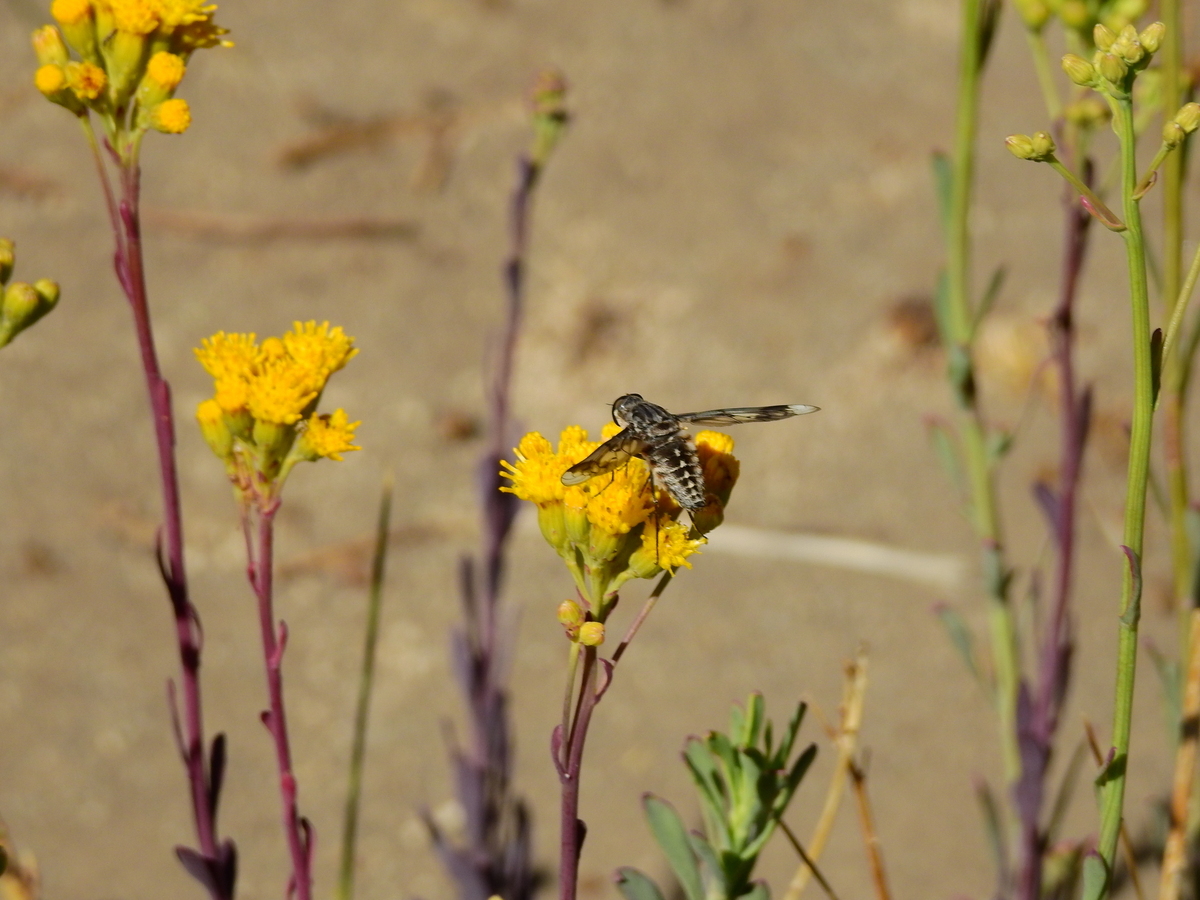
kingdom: Plantae
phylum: Tracheophyta
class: Magnoliopsida
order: Asterales
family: Asteraceae
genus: Senecio
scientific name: Senecio subumbellatus
